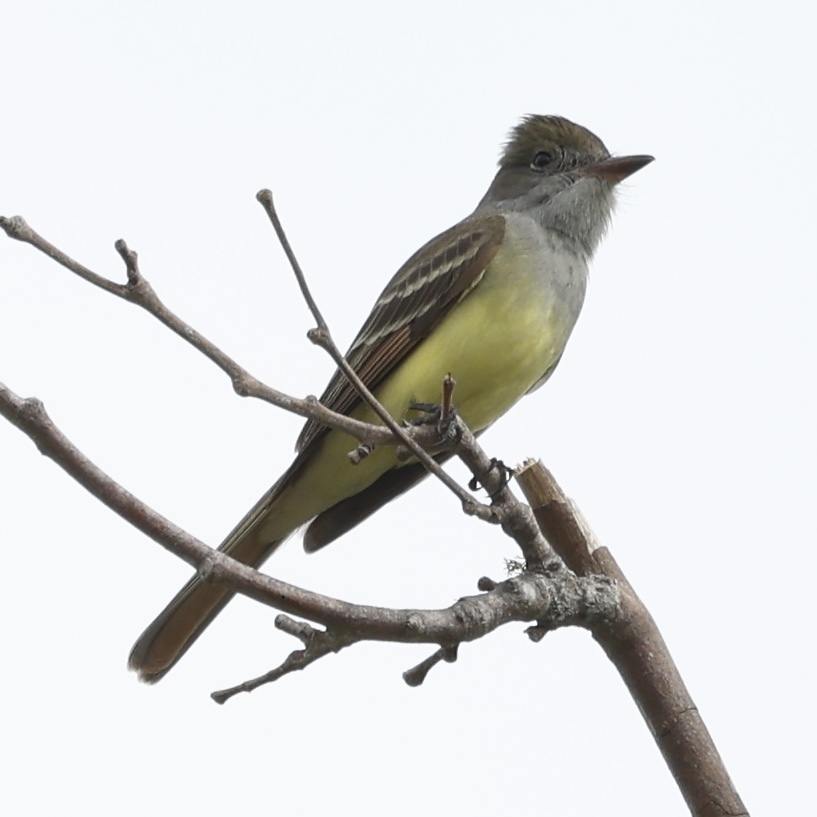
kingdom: Animalia
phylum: Chordata
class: Aves
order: Passeriformes
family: Tyrannidae
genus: Myiarchus
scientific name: Myiarchus crinitus
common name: Great crested flycatcher
